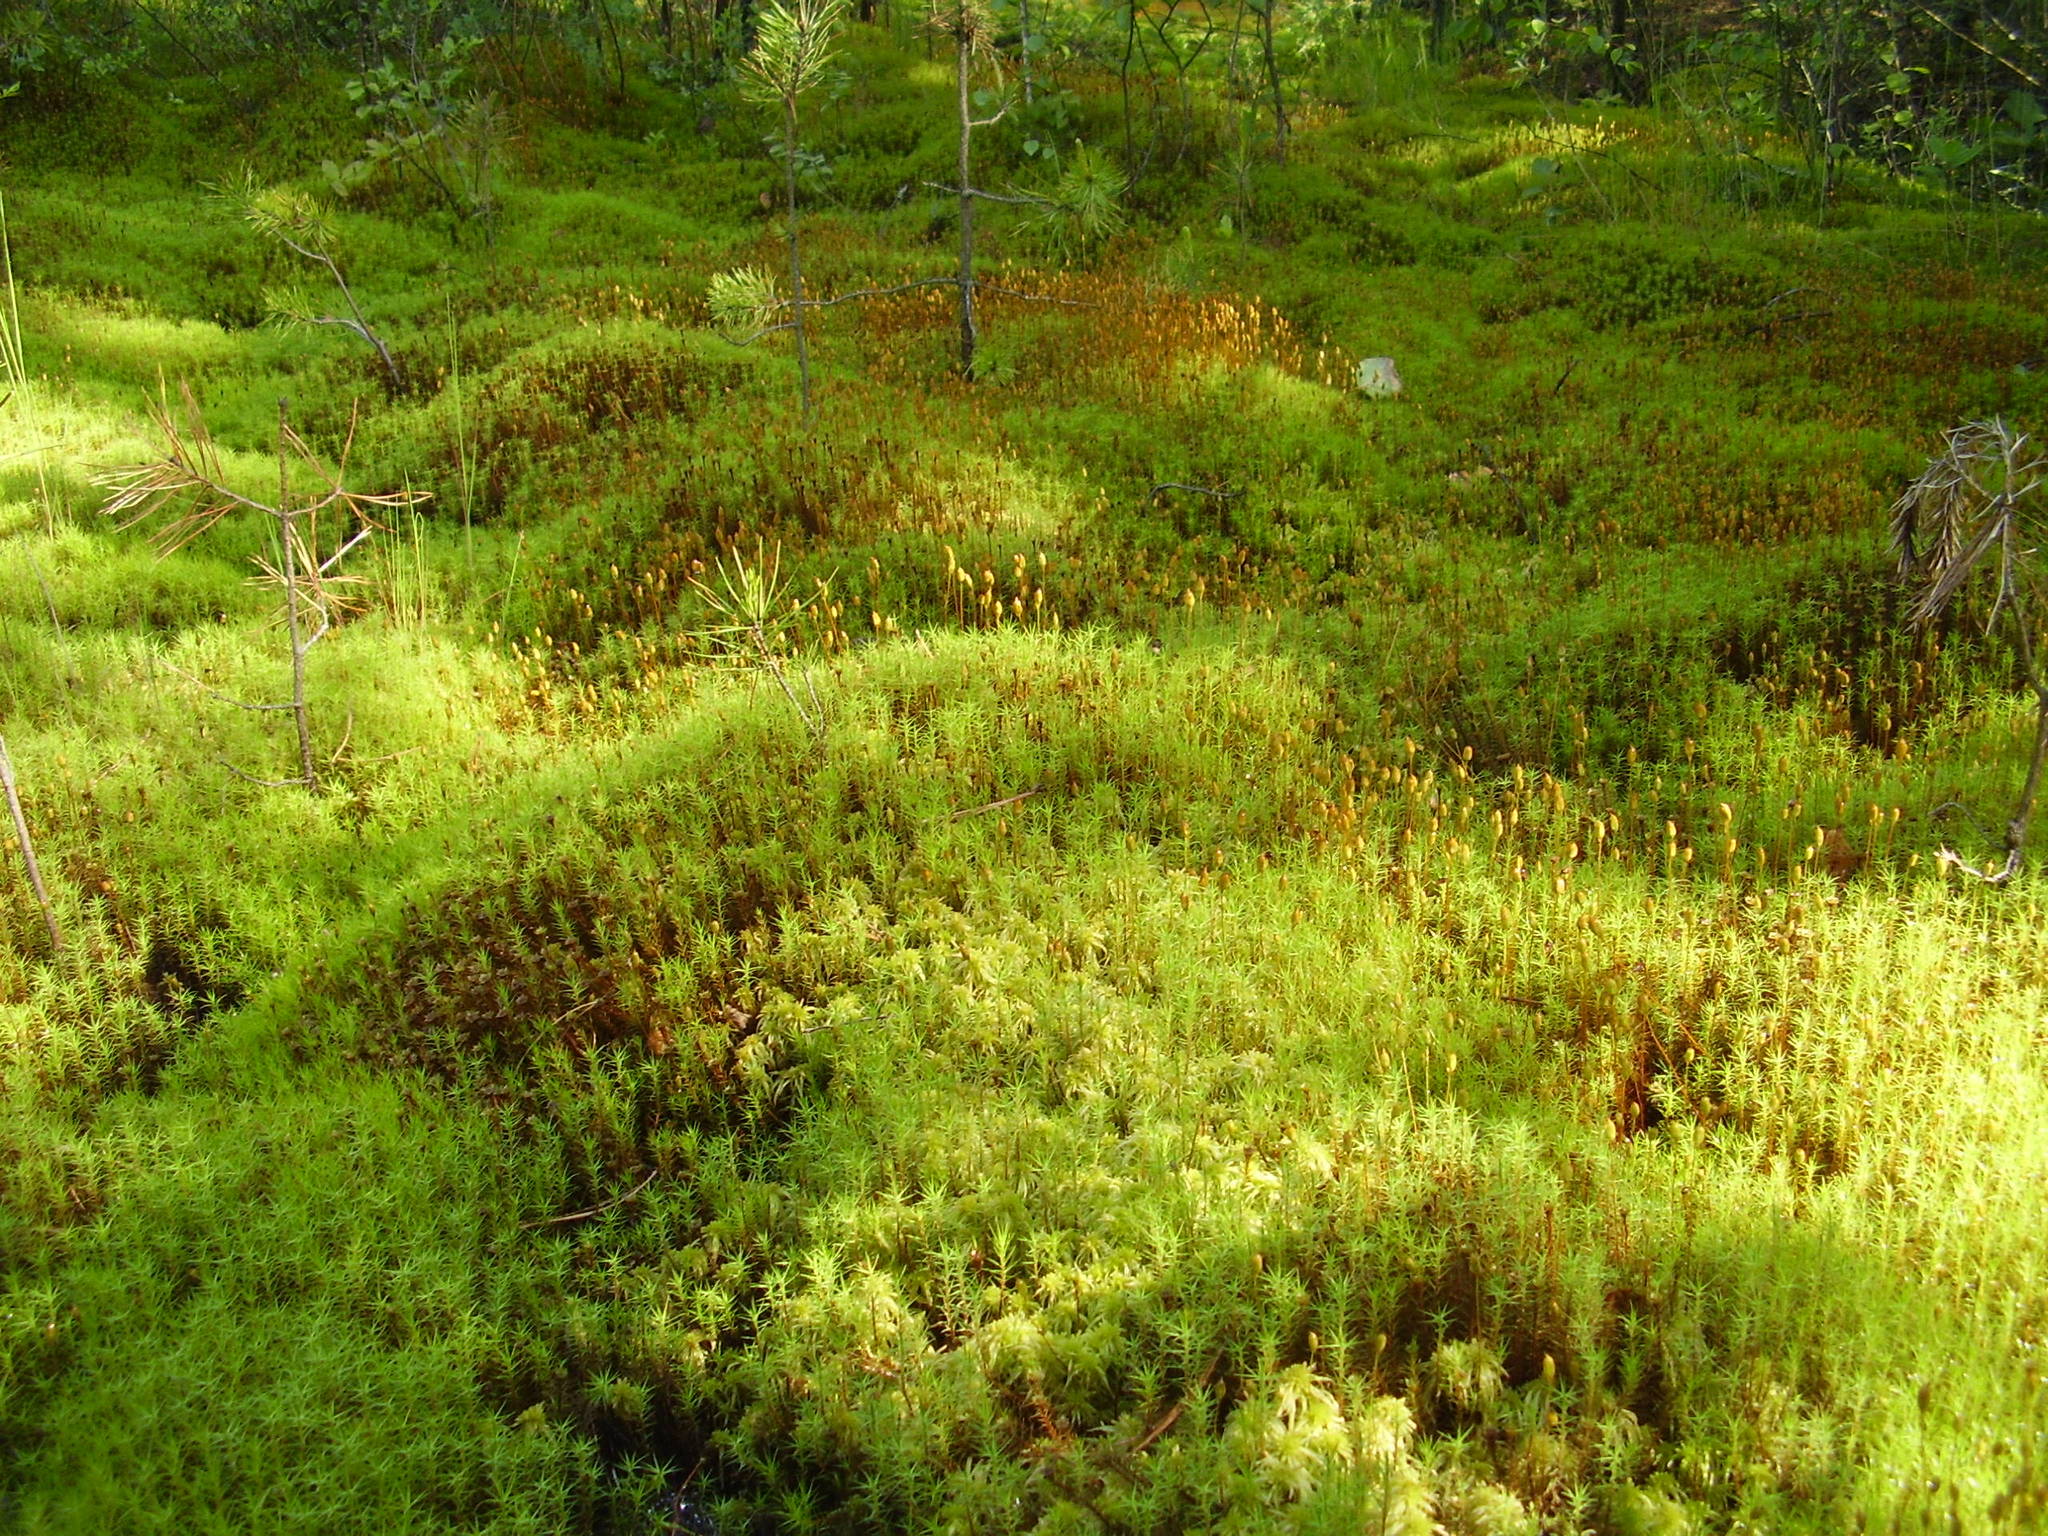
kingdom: Plantae
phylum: Bryophyta
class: Polytrichopsida
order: Polytrichales
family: Polytrichaceae
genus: Polytrichum
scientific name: Polytrichum commune
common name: Common haircap
